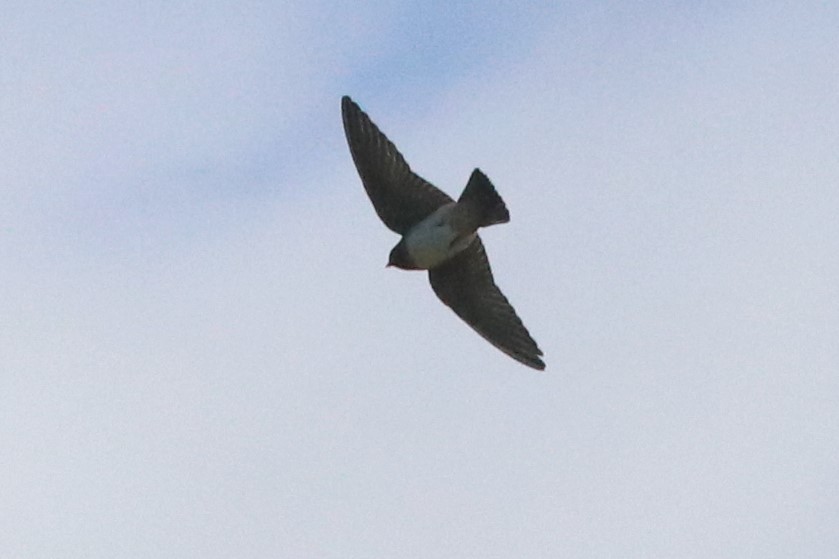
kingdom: Animalia
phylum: Chordata
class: Aves
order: Passeriformes
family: Hirundinidae
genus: Petrochelidon
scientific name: Petrochelidon pyrrhonota
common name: American cliff swallow
